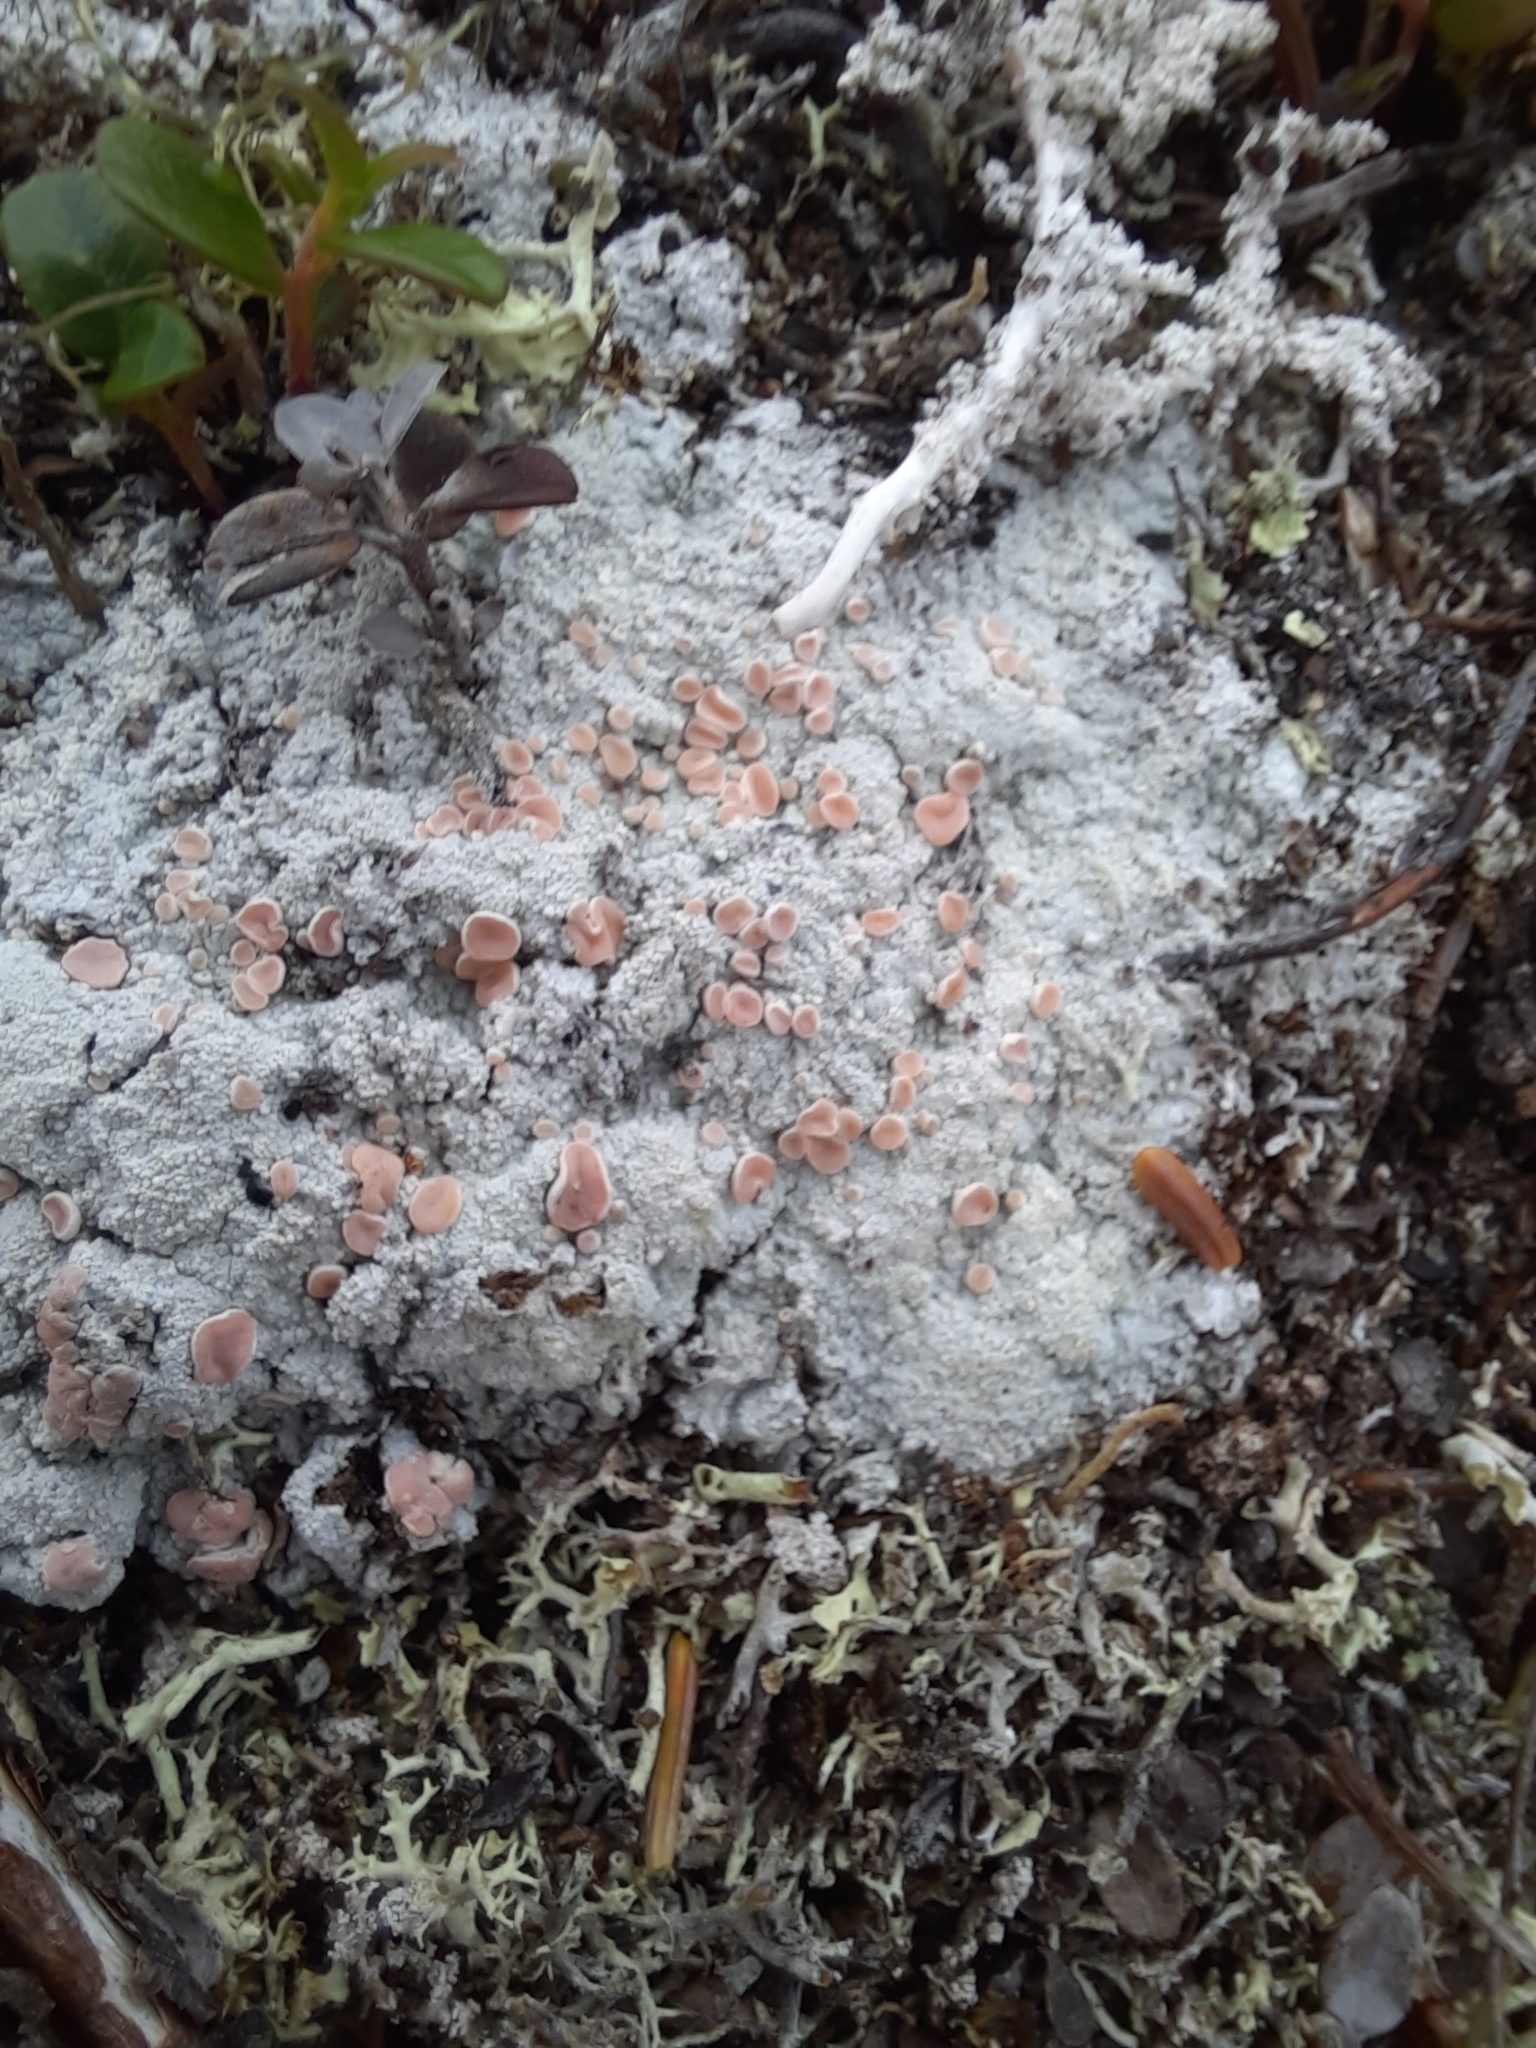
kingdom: Fungi
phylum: Ascomycota
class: Lecanoromycetes
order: Pertusariales
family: Icmadophilaceae
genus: Icmadophila
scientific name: Icmadophila ericetorum
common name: Candy lichen
